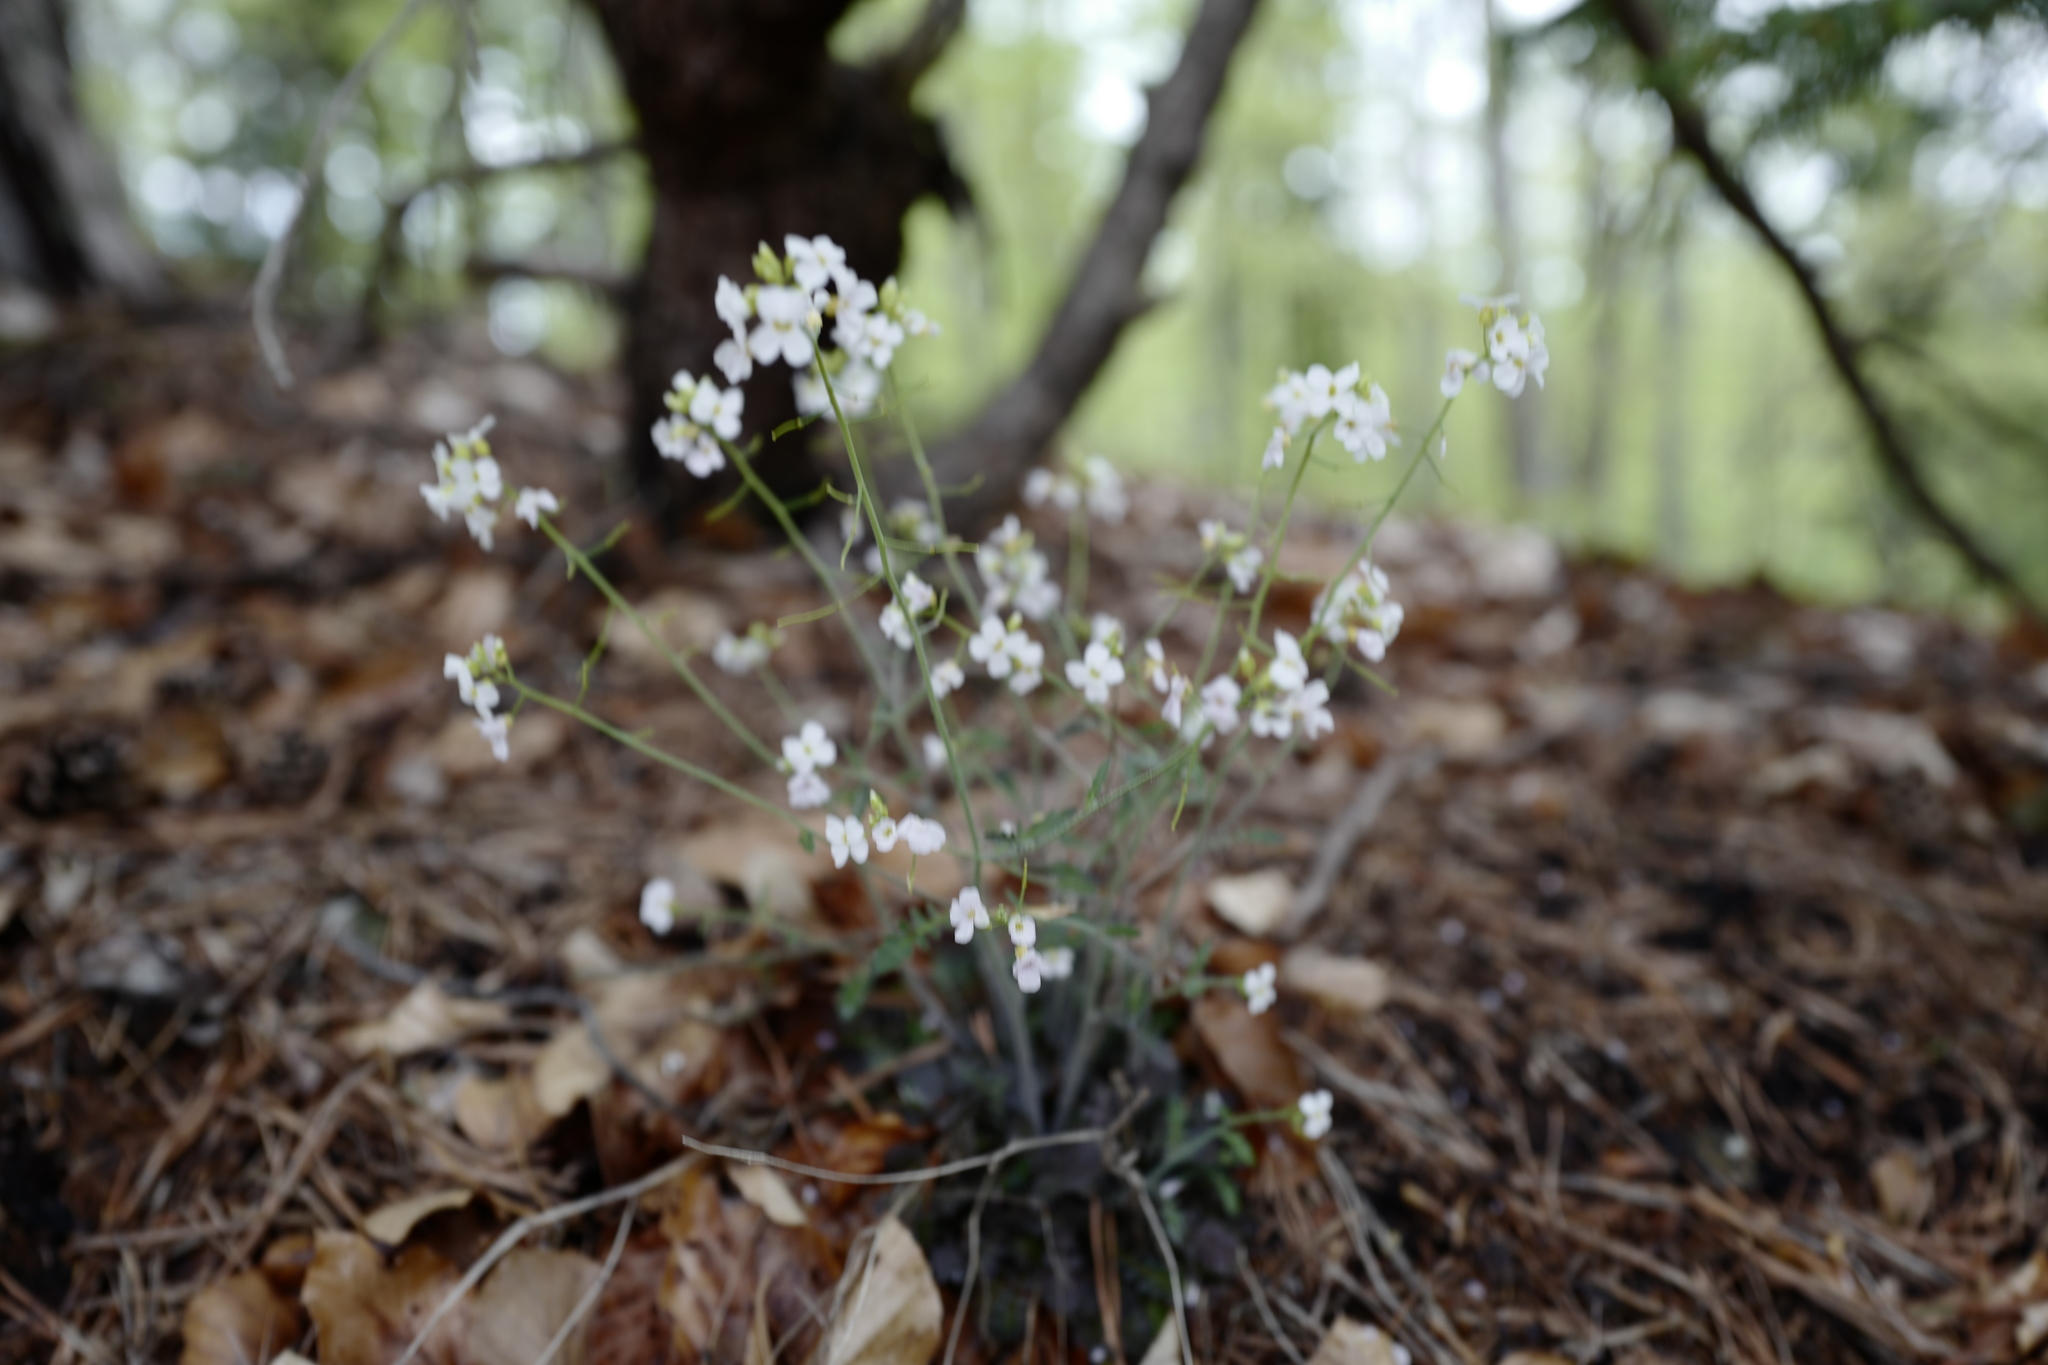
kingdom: Plantae
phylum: Tracheophyta
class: Magnoliopsida
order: Brassicales
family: Brassicaceae
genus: Arabidopsis
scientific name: Arabidopsis arenosa
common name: Sand rock-cress
